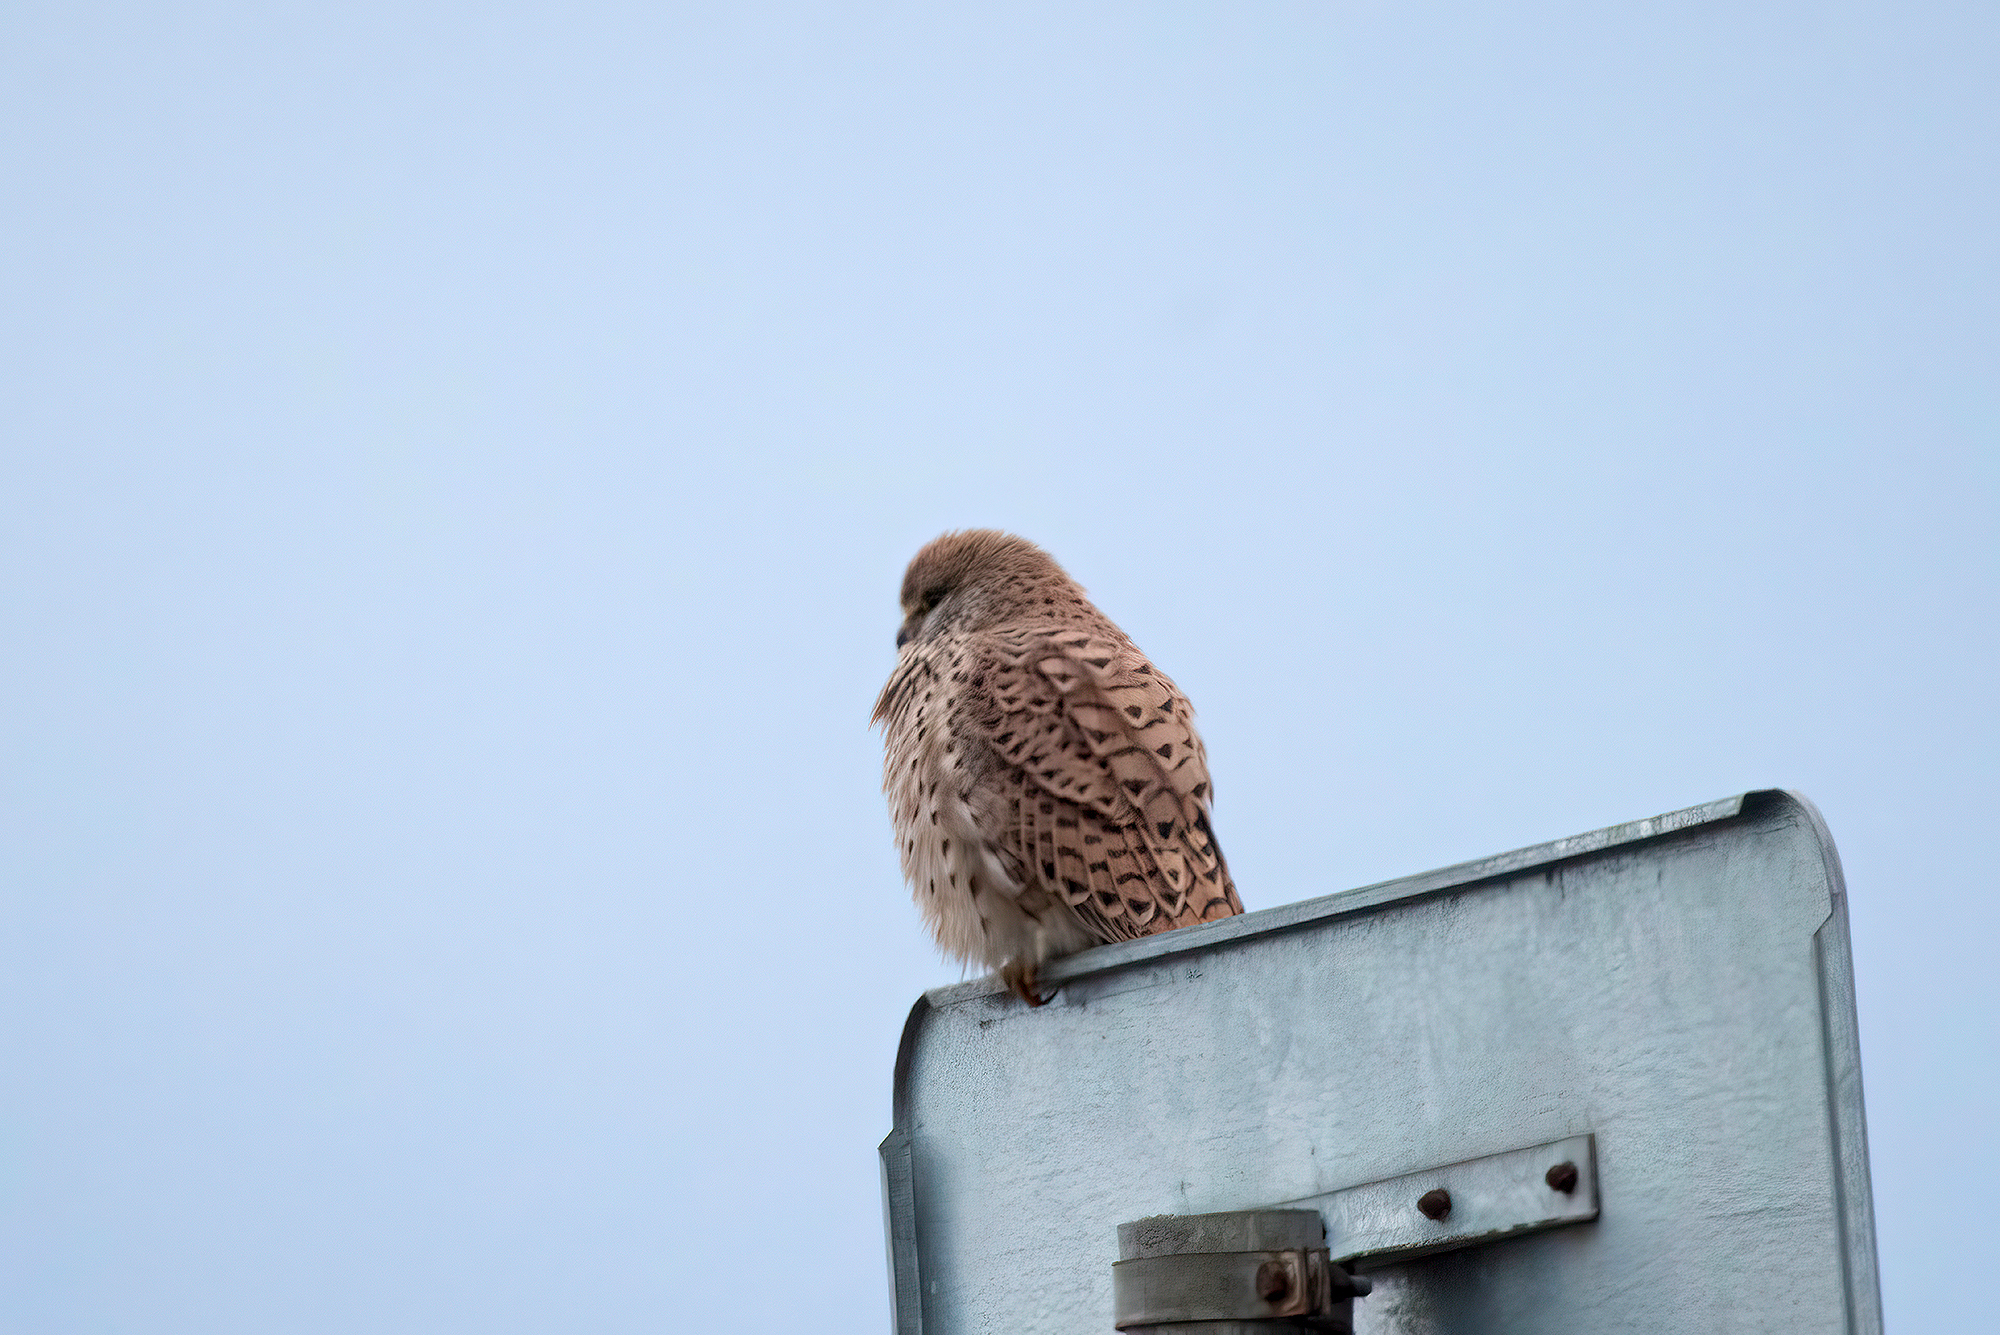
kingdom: Animalia
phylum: Chordata
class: Aves
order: Falconiformes
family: Falconidae
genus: Falco
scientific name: Falco tinnunculus
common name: Common kestrel
